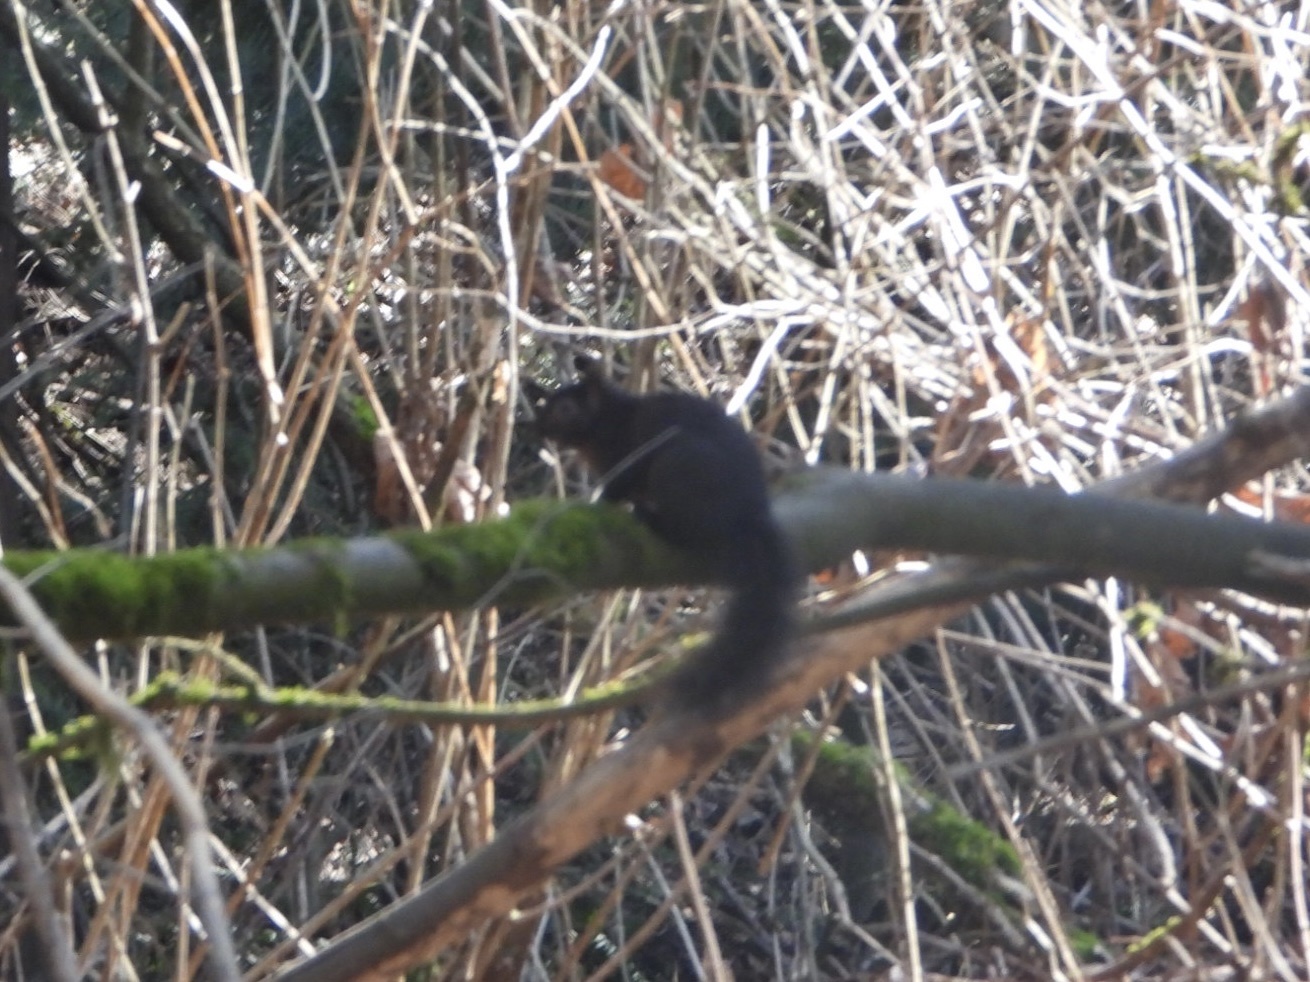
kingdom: Animalia
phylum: Chordata
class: Mammalia
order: Rodentia
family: Sciuridae
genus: Sciurus
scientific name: Sciurus carolinensis
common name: Eastern gray squirrel
